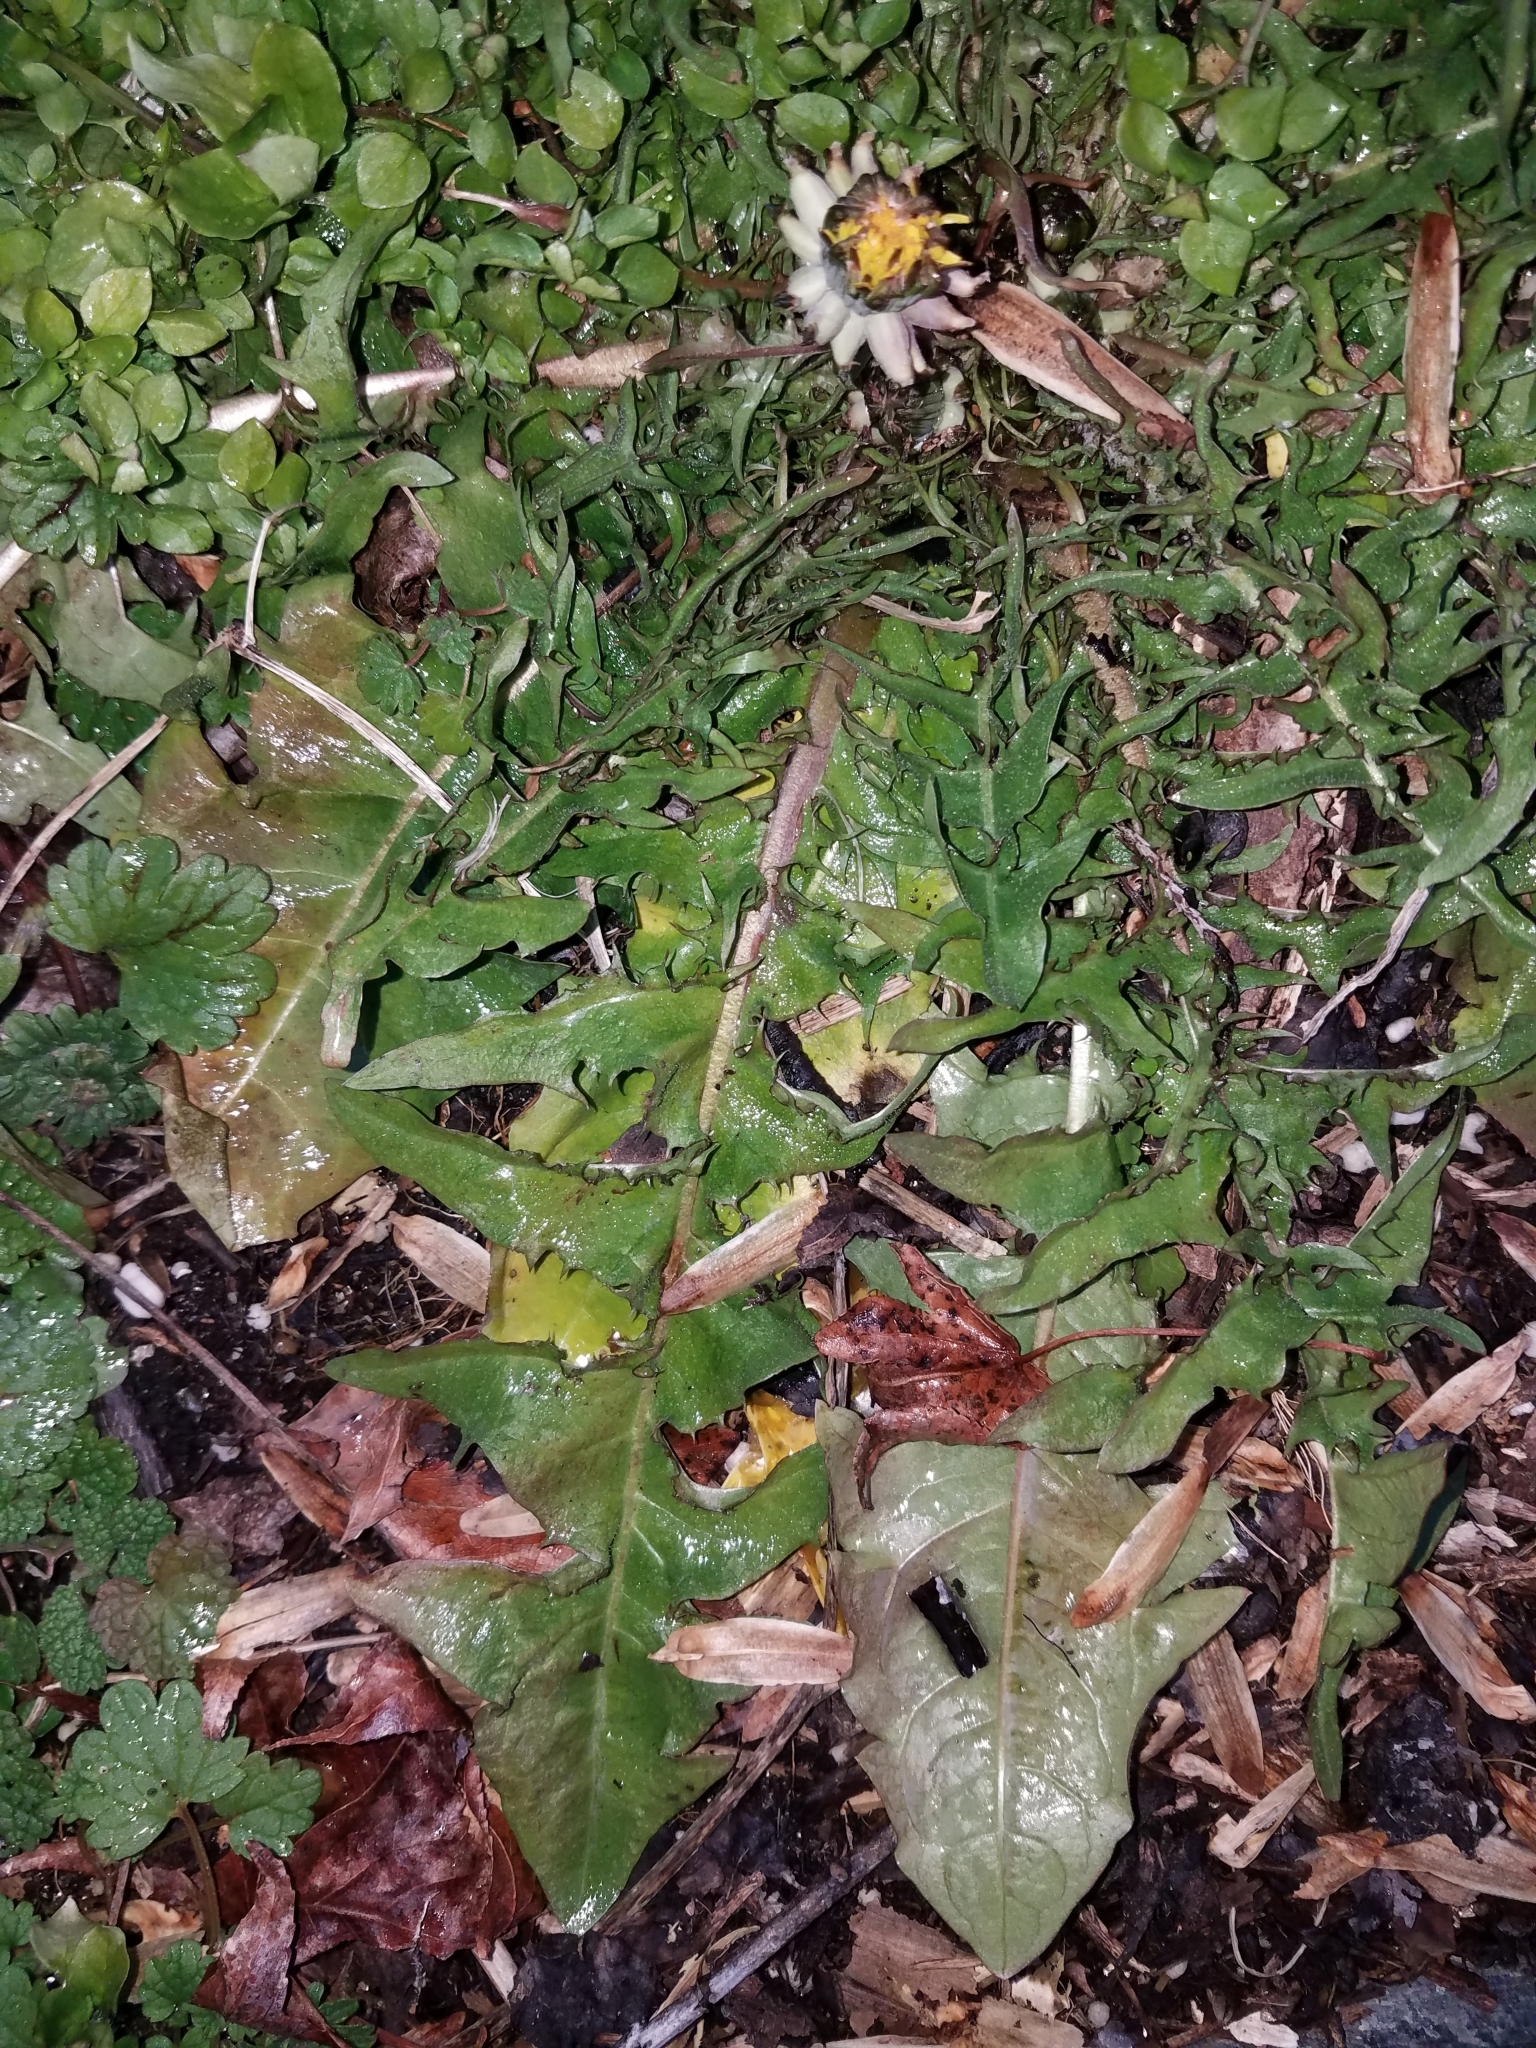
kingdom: Plantae
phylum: Tracheophyta
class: Magnoliopsida
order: Asterales
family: Asteraceae
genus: Taraxacum
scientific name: Taraxacum officinale
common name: Common dandelion
